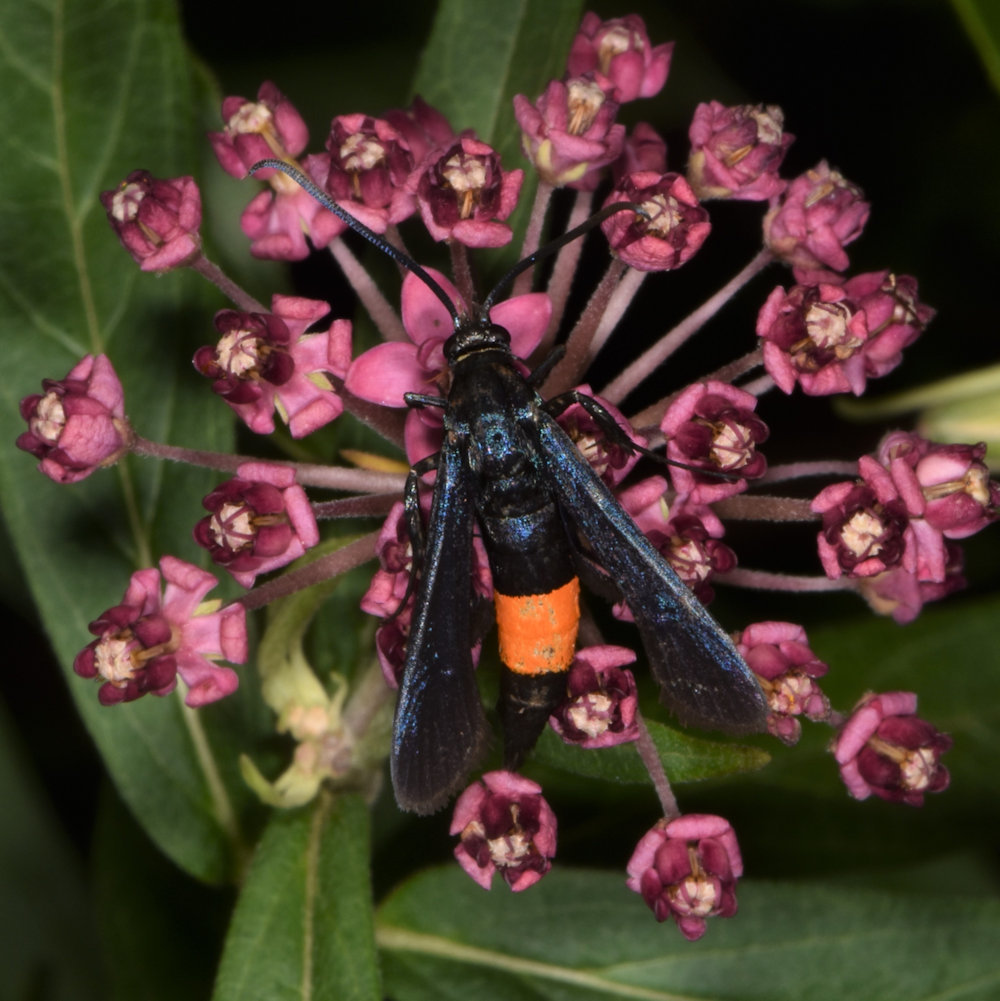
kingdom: Animalia
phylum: Arthropoda
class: Insecta
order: Lepidoptera
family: Sesiidae
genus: Synanthedon
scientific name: Synanthedon exitiosa
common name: Peachtree borer moth
